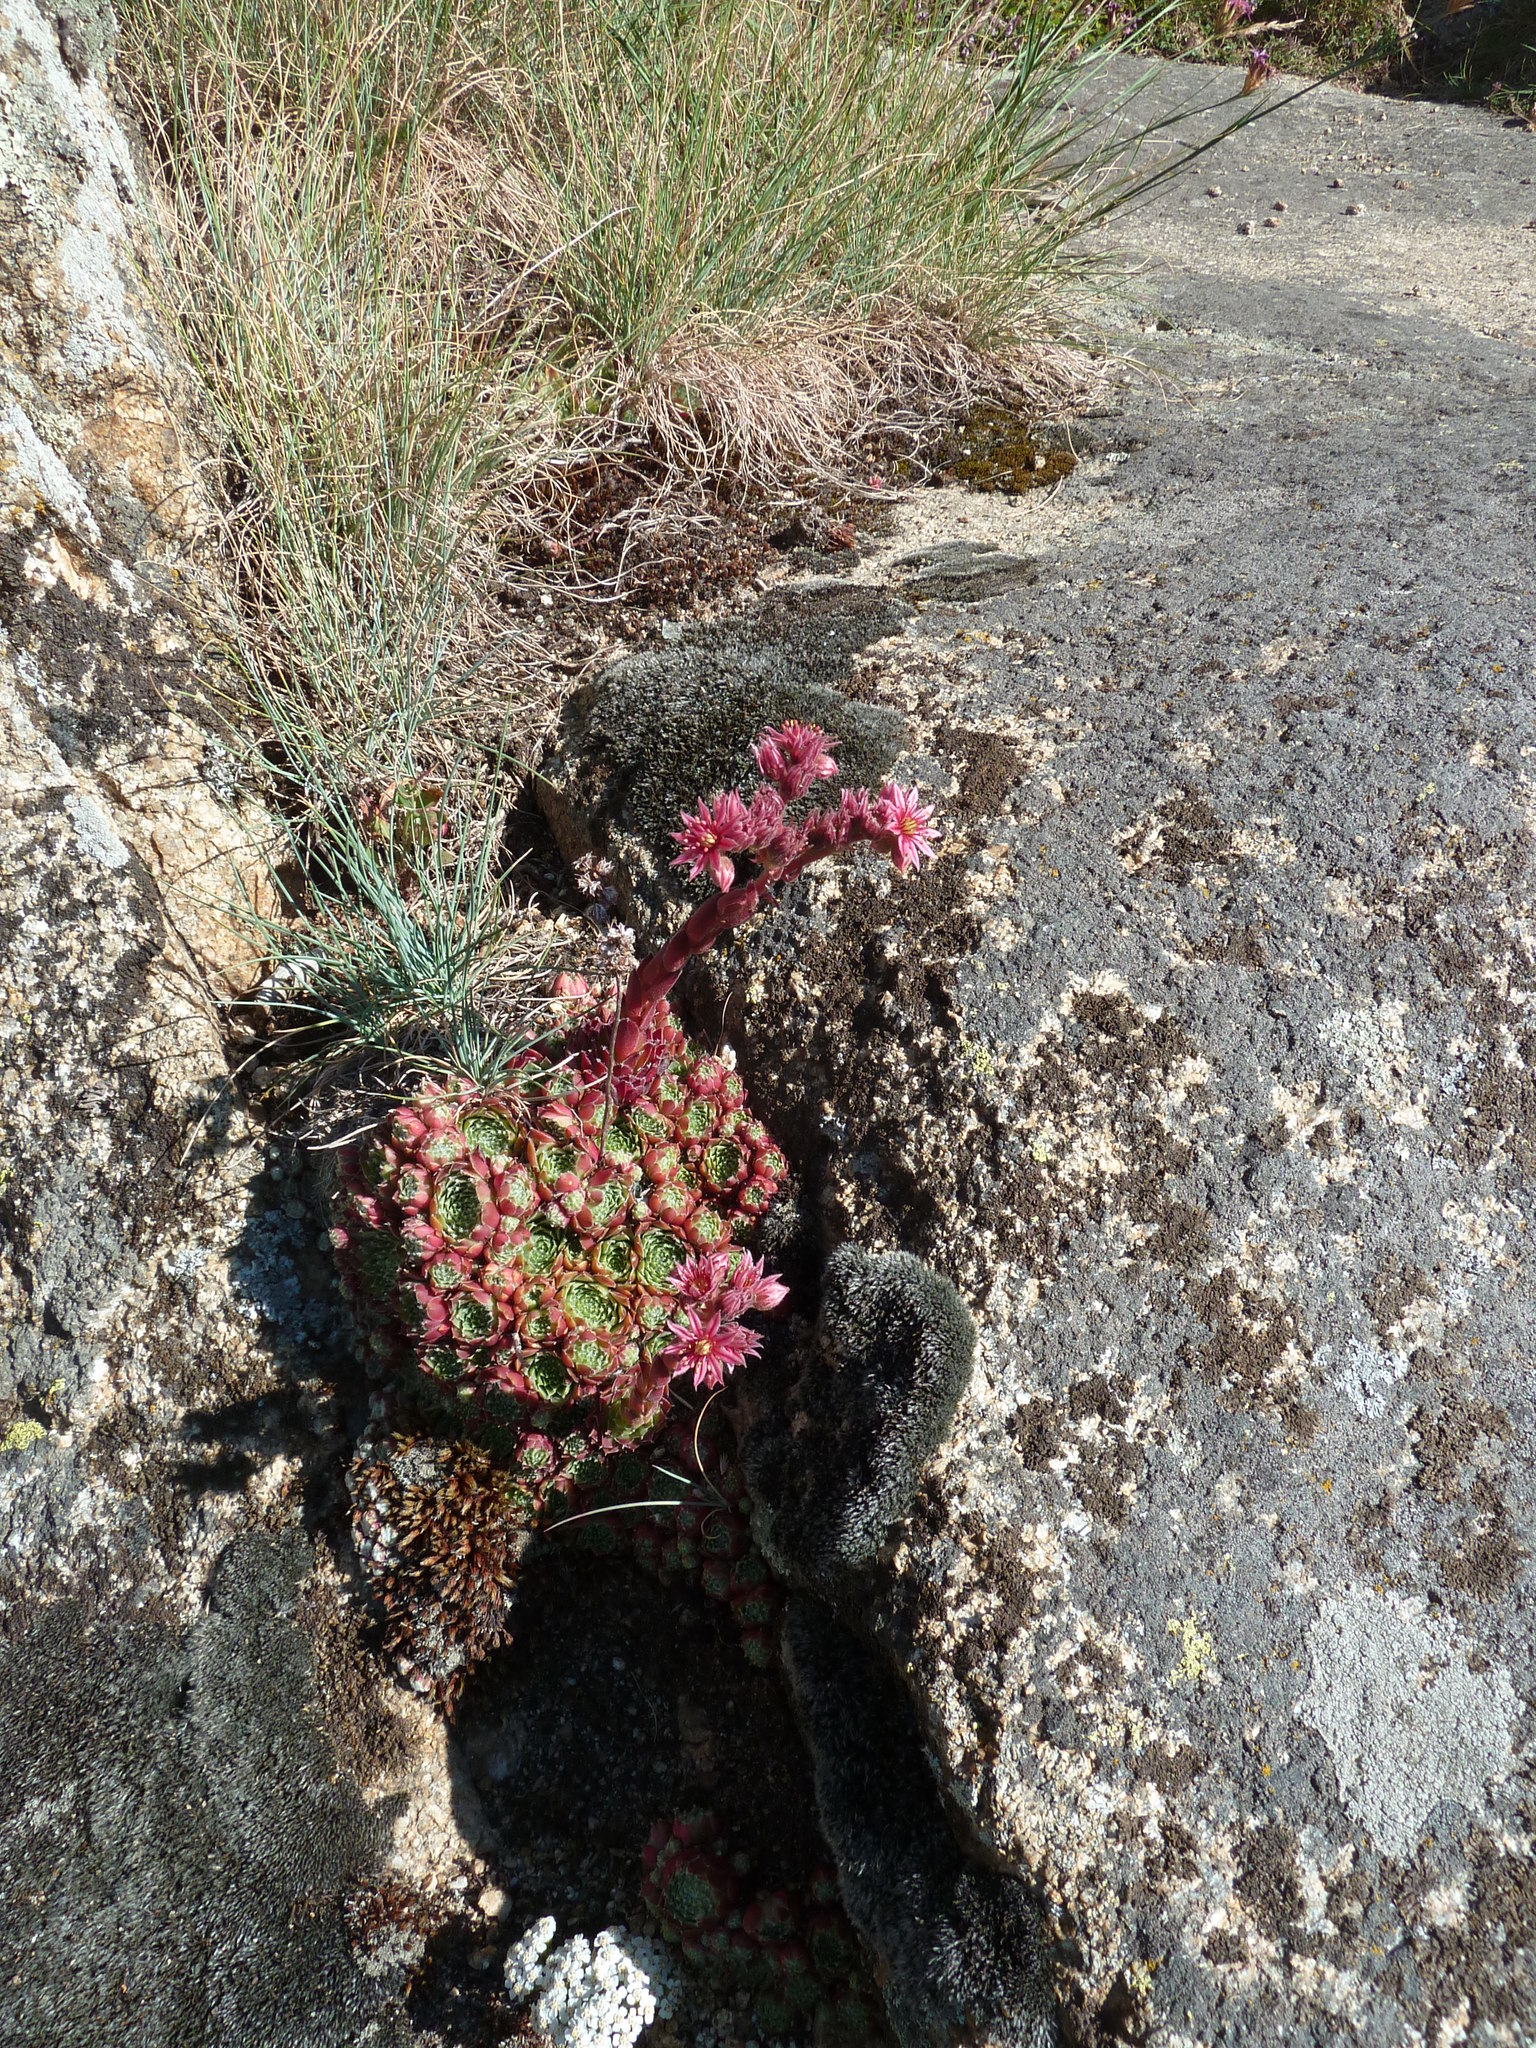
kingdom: Plantae
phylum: Tracheophyta
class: Magnoliopsida
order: Saxifragales
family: Crassulaceae
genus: Sempervivum
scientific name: Sempervivum arachnoideum
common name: Cobweb house-leek
